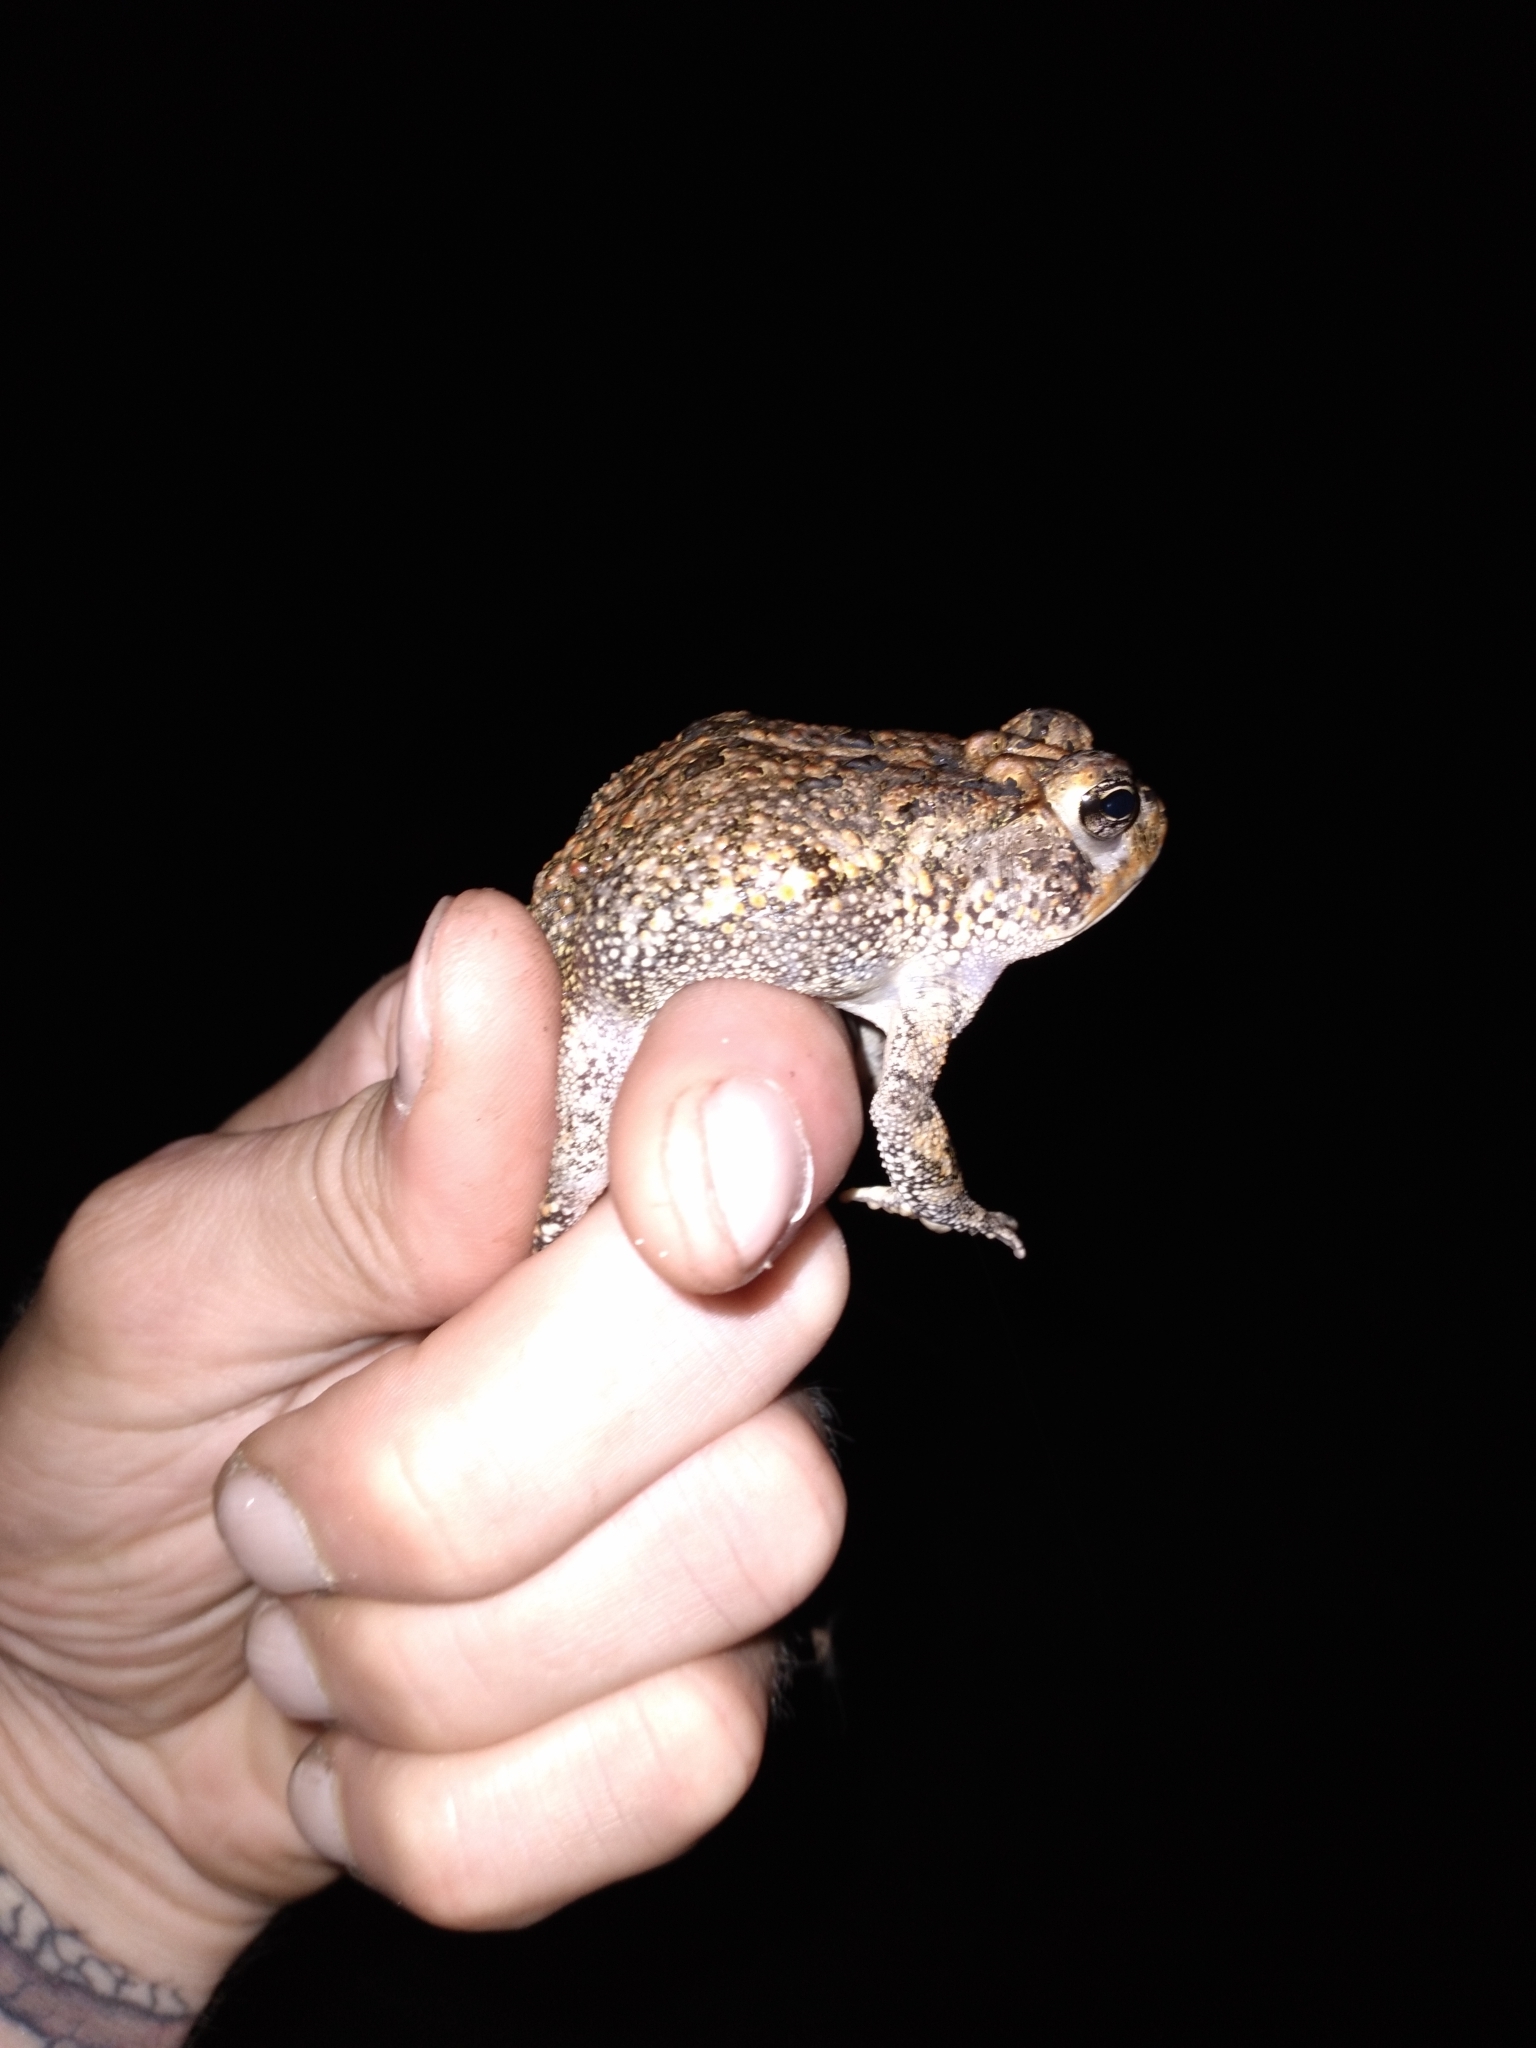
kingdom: Animalia
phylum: Chordata
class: Amphibia
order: Anura
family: Bufonidae
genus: Anaxyrus
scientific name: Anaxyrus terrestris
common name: Southern toad
